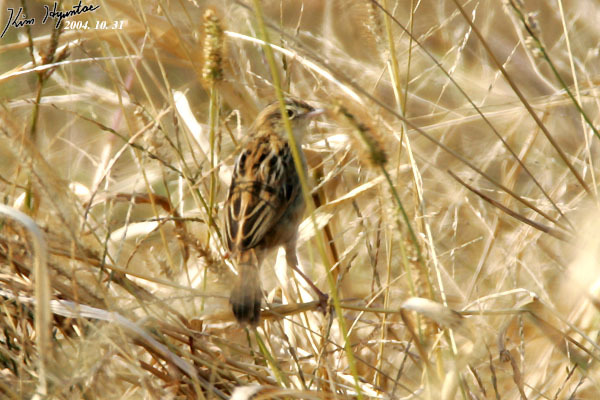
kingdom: Animalia
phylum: Chordata
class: Aves
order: Passeriformes
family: Cisticolidae
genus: Cisticola
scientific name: Cisticola juncidis
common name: Zitting cisticola
